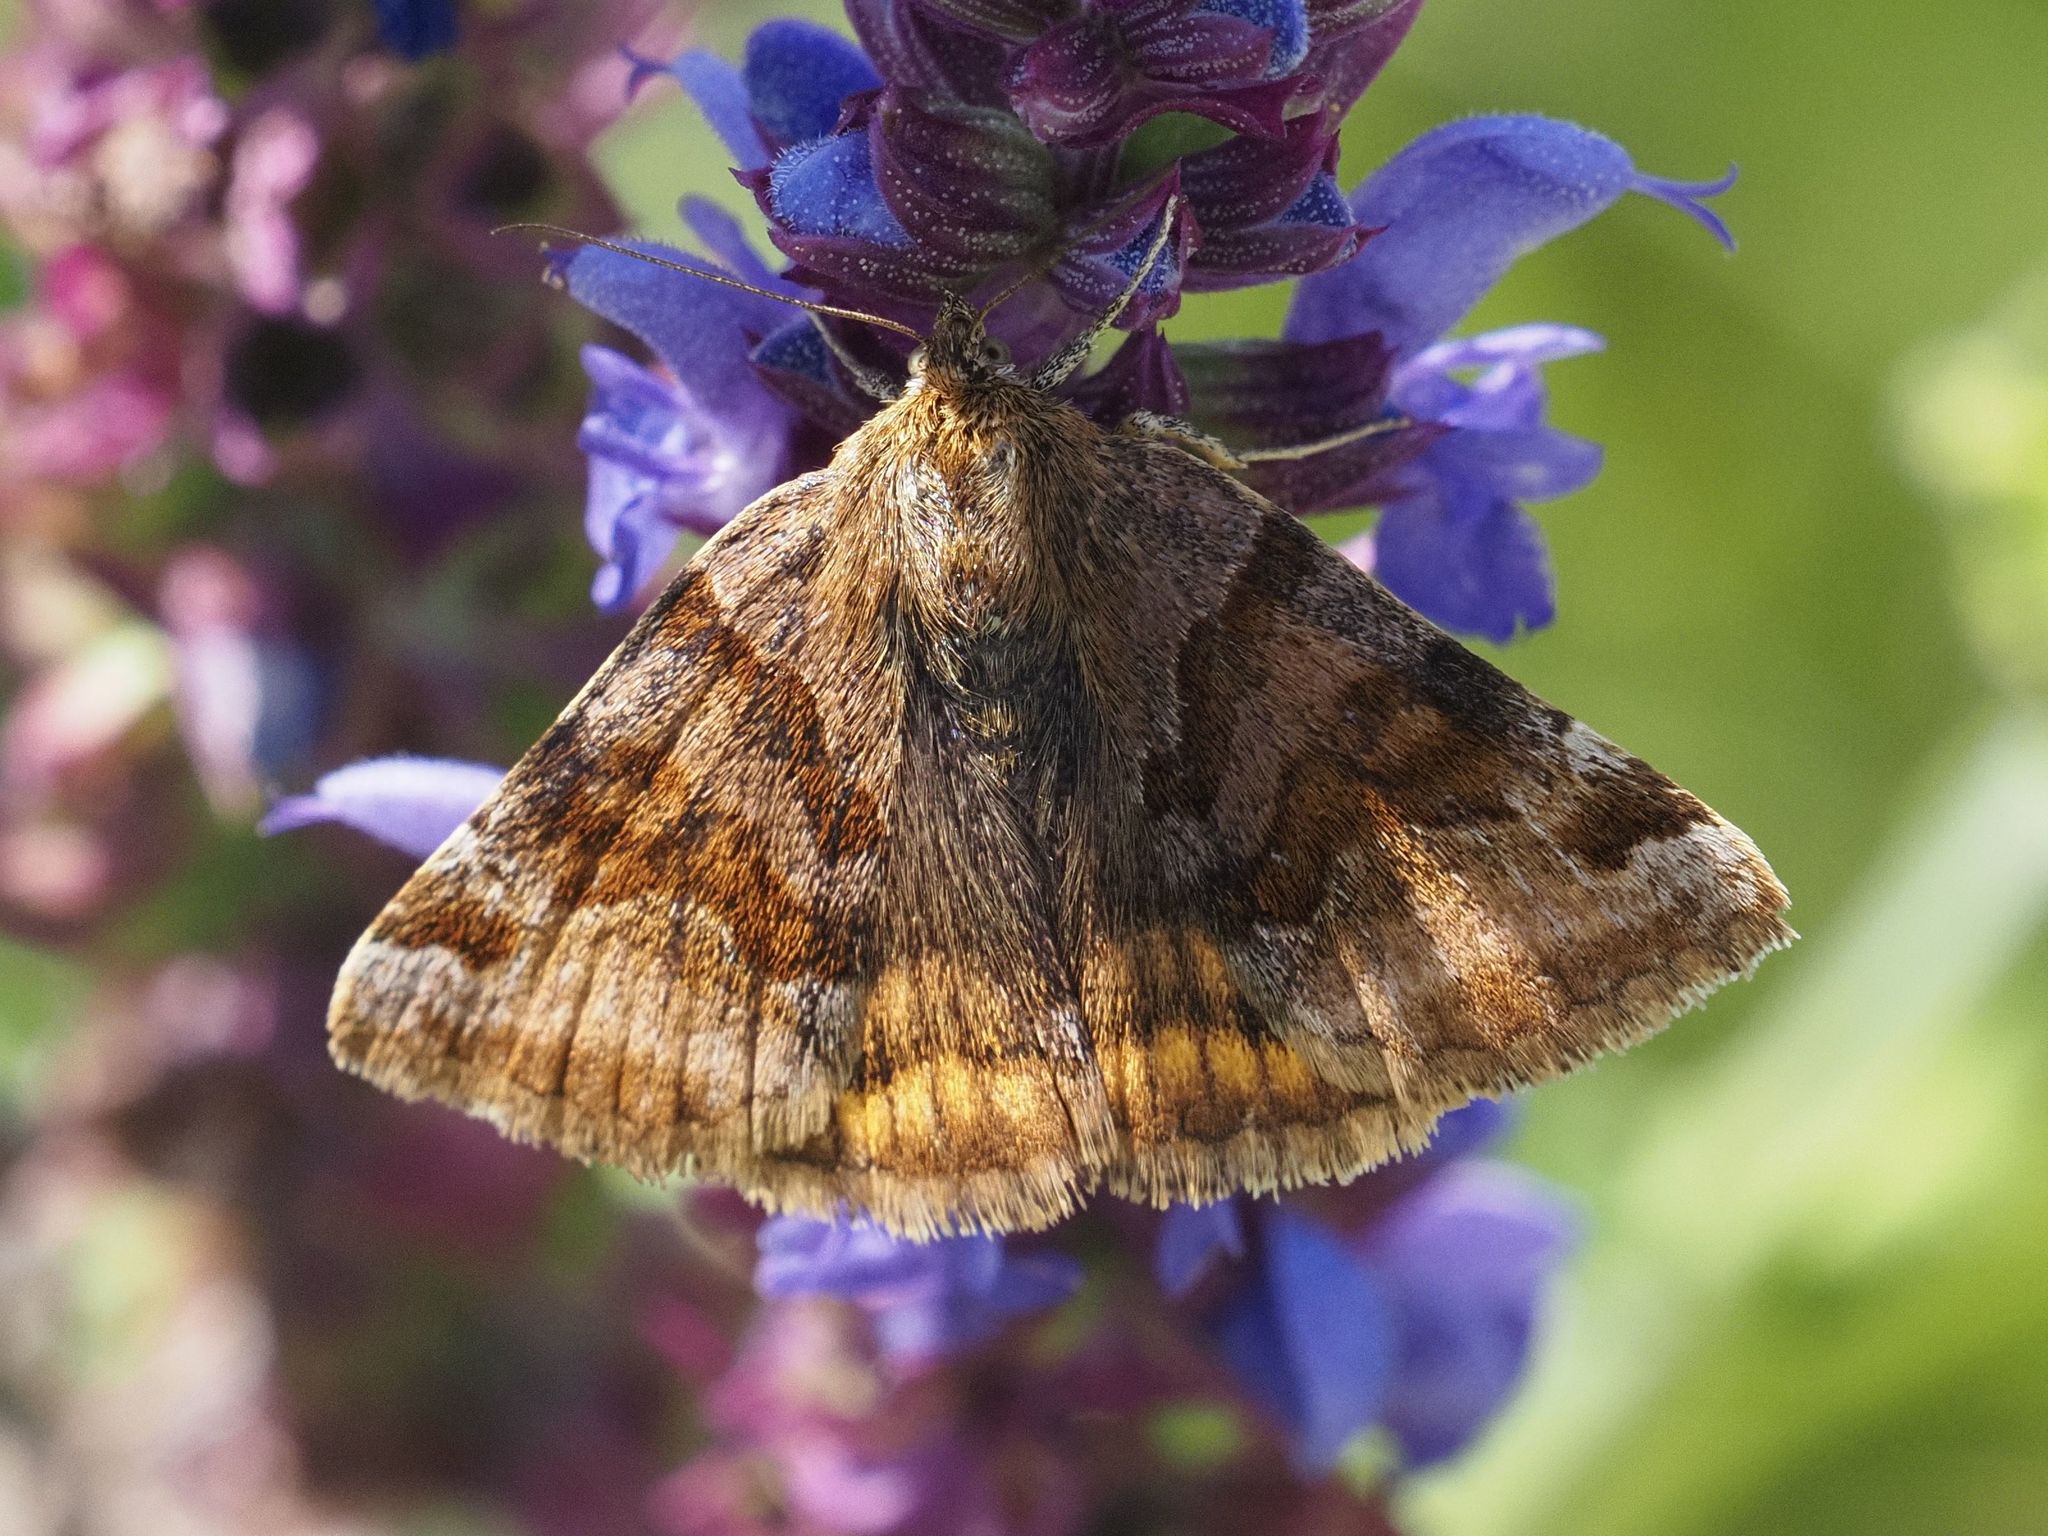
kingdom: Animalia
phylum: Arthropoda
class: Insecta
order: Lepidoptera
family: Erebidae
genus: Euclidia
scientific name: Euclidia glyphica
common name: Burnet companion
